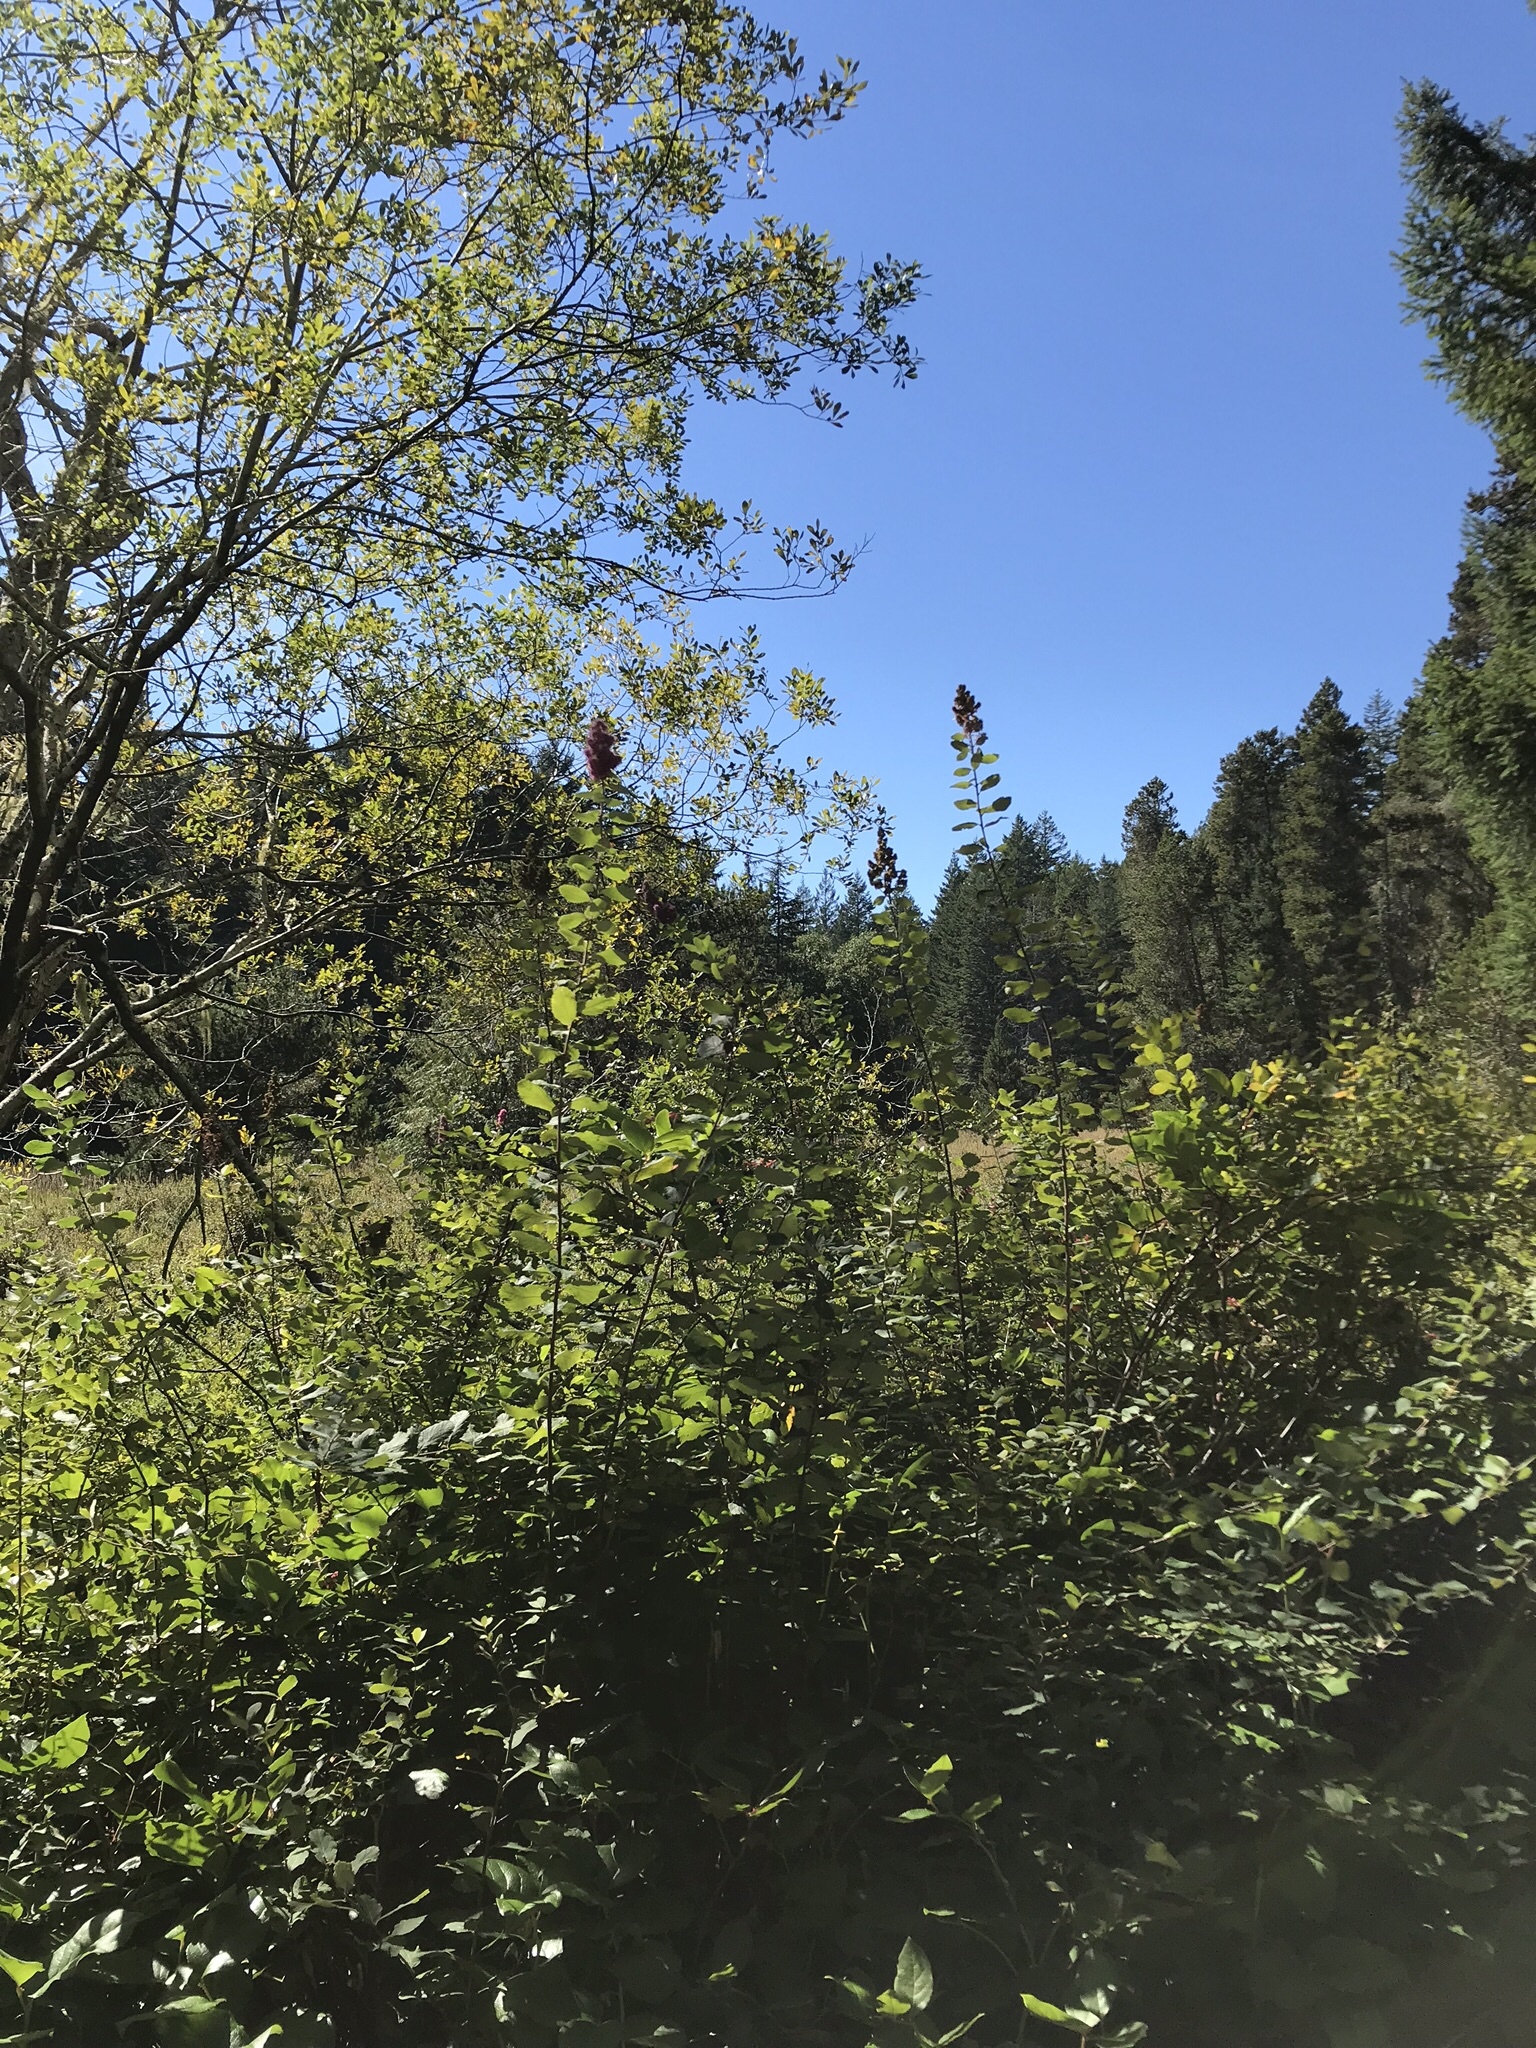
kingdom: Plantae
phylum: Tracheophyta
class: Magnoliopsida
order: Rosales
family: Rosaceae
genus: Spiraea
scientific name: Spiraea douglasii
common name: Steeplebush
